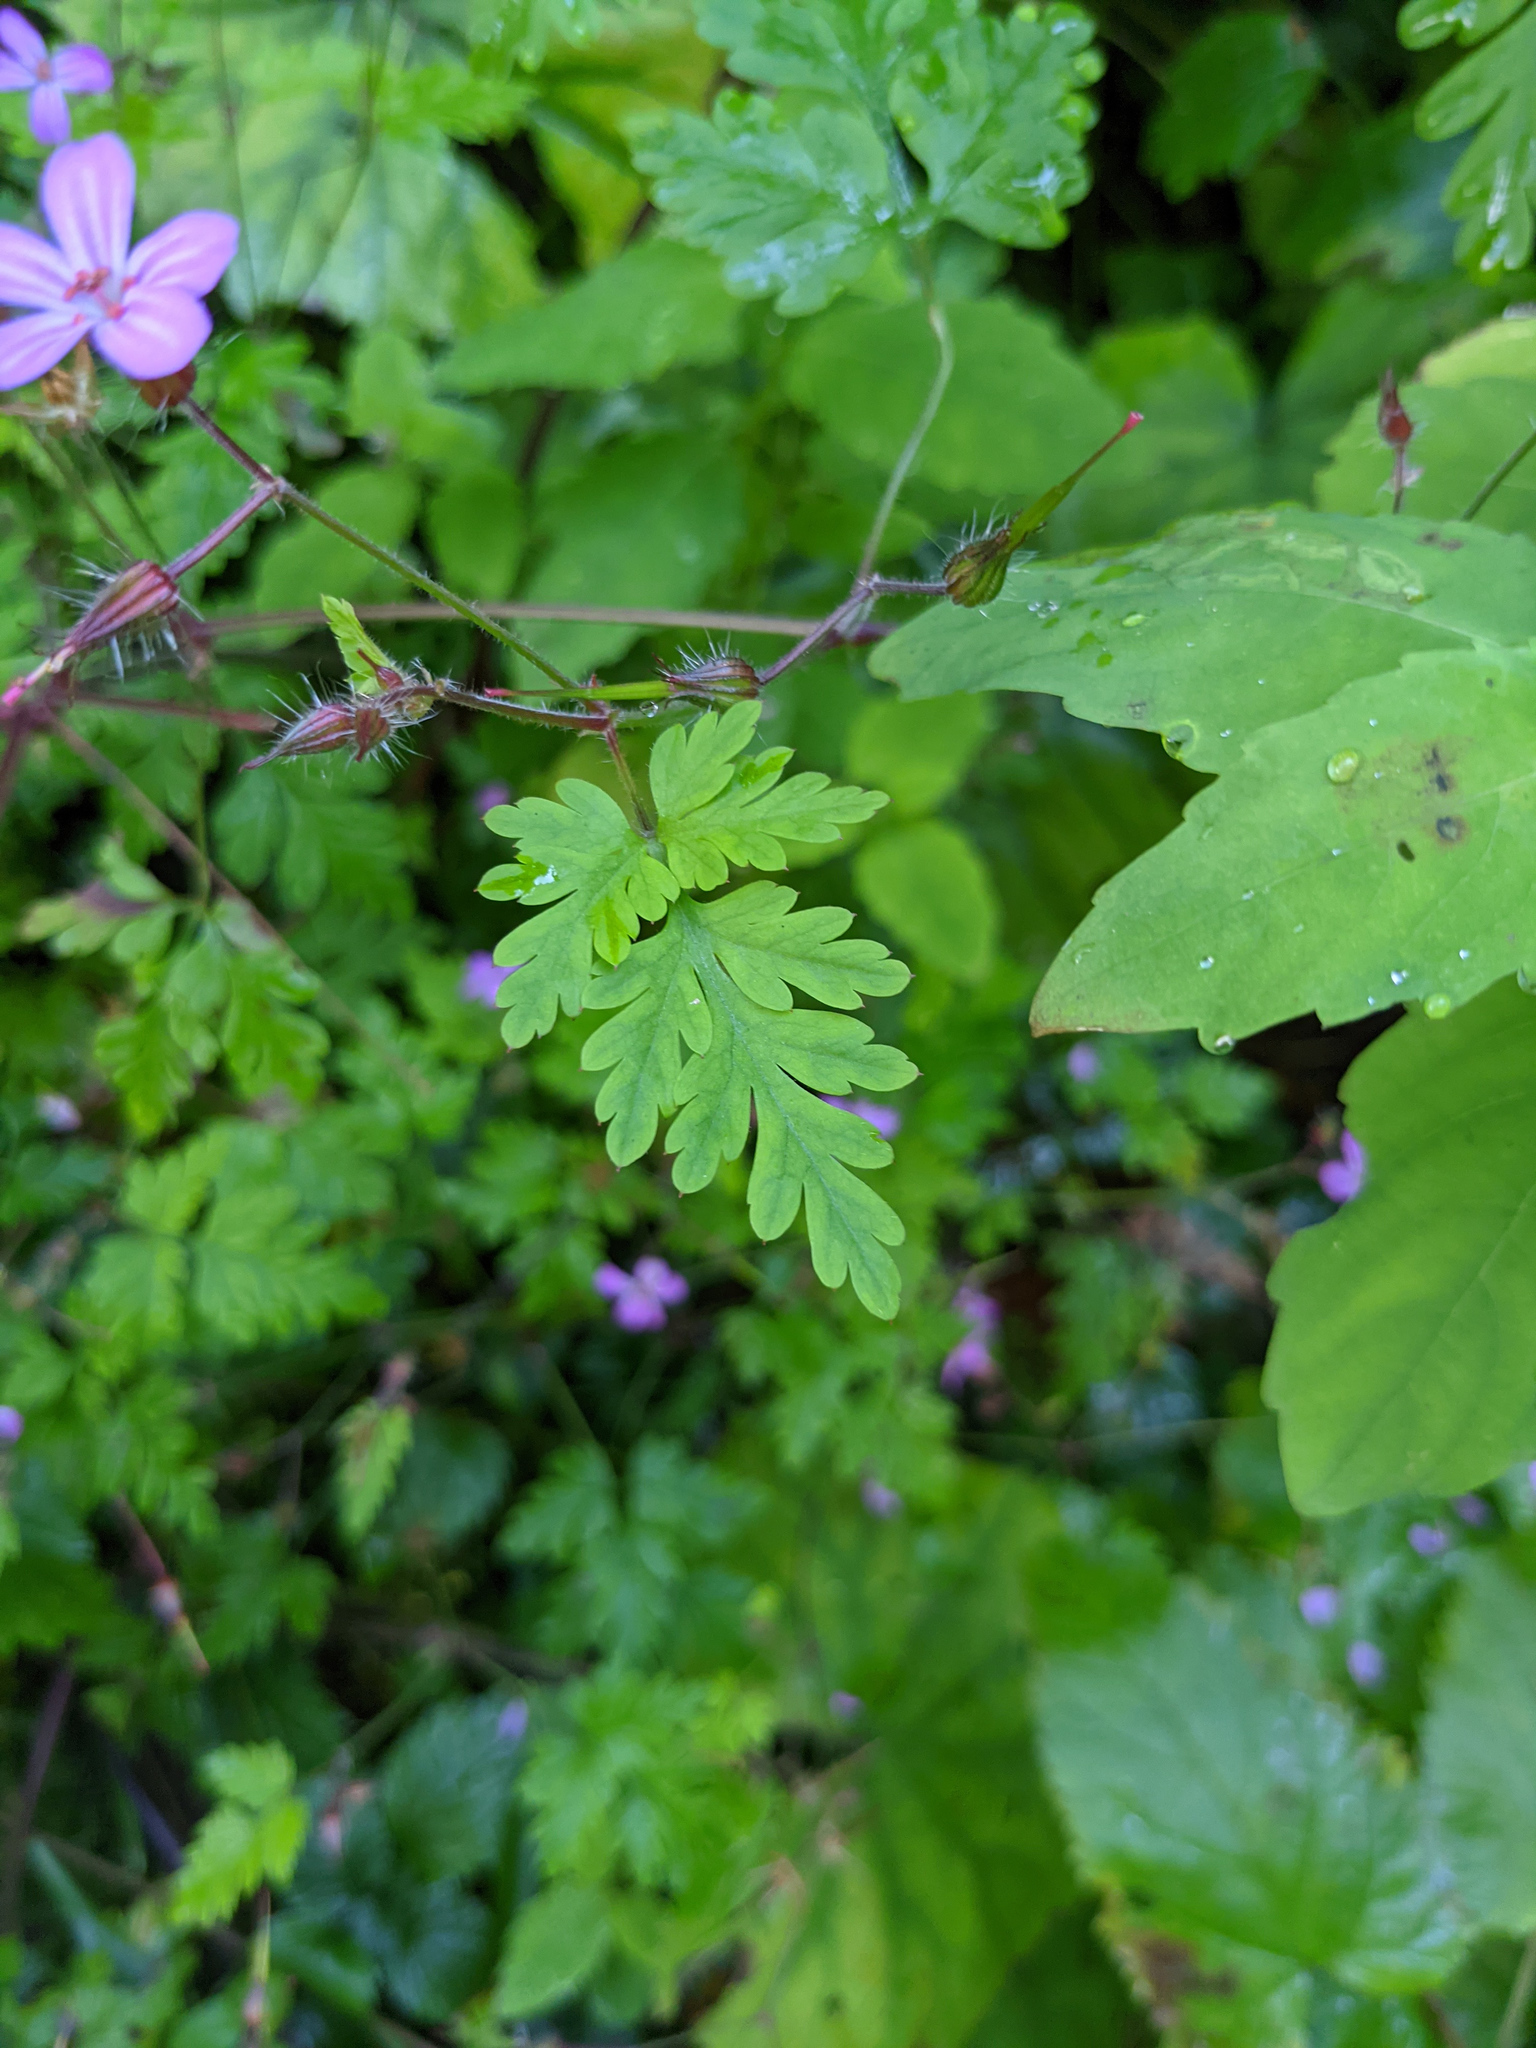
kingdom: Plantae
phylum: Tracheophyta
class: Magnoliopsida
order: Geraniales
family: Geraniaceae
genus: Geranium
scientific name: Geranium robertianum
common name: Herb-robert
